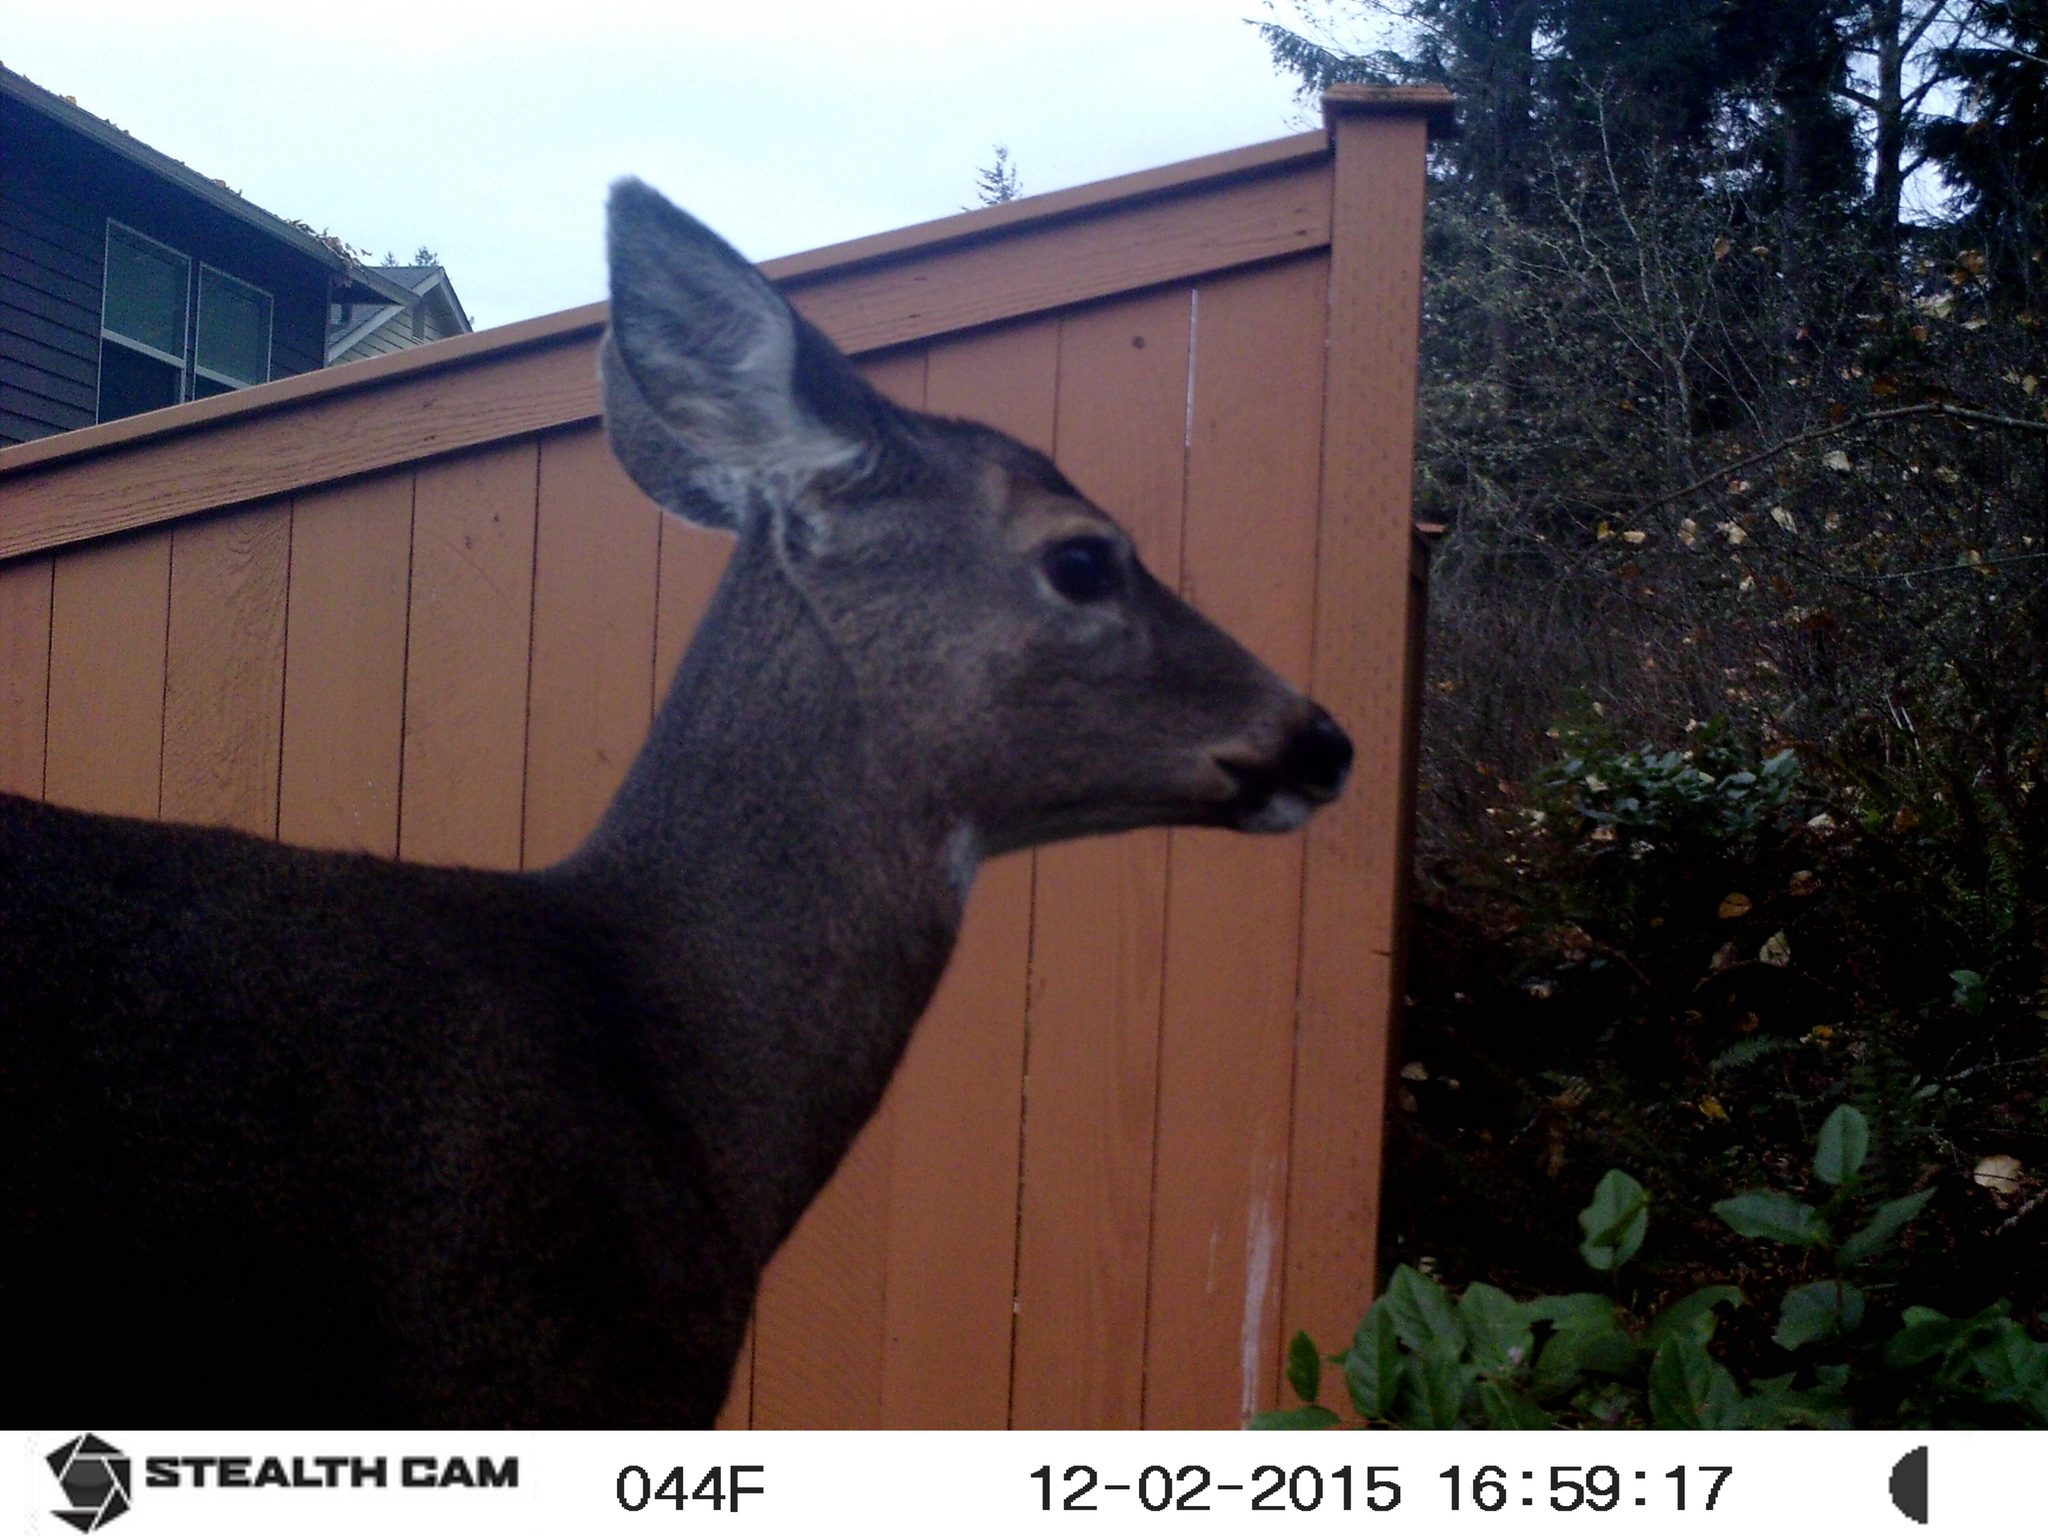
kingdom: Animalia
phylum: Chordata
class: Mammalia
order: Artiodactyla
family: Cervidae
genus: Odocoileus
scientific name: Odocoileus hemionus
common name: Mule deer
